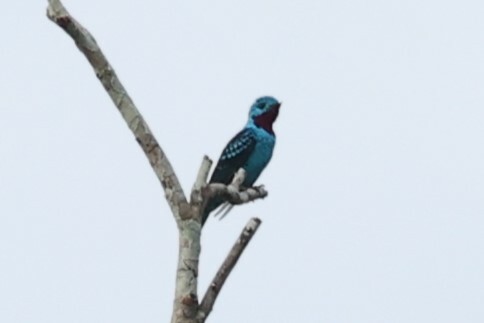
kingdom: Animalia
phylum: Chordata
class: Aves
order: Passeriformes
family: Cotingidae
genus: Cotinga
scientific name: Cotinga cayana
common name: Spangled cotinga
